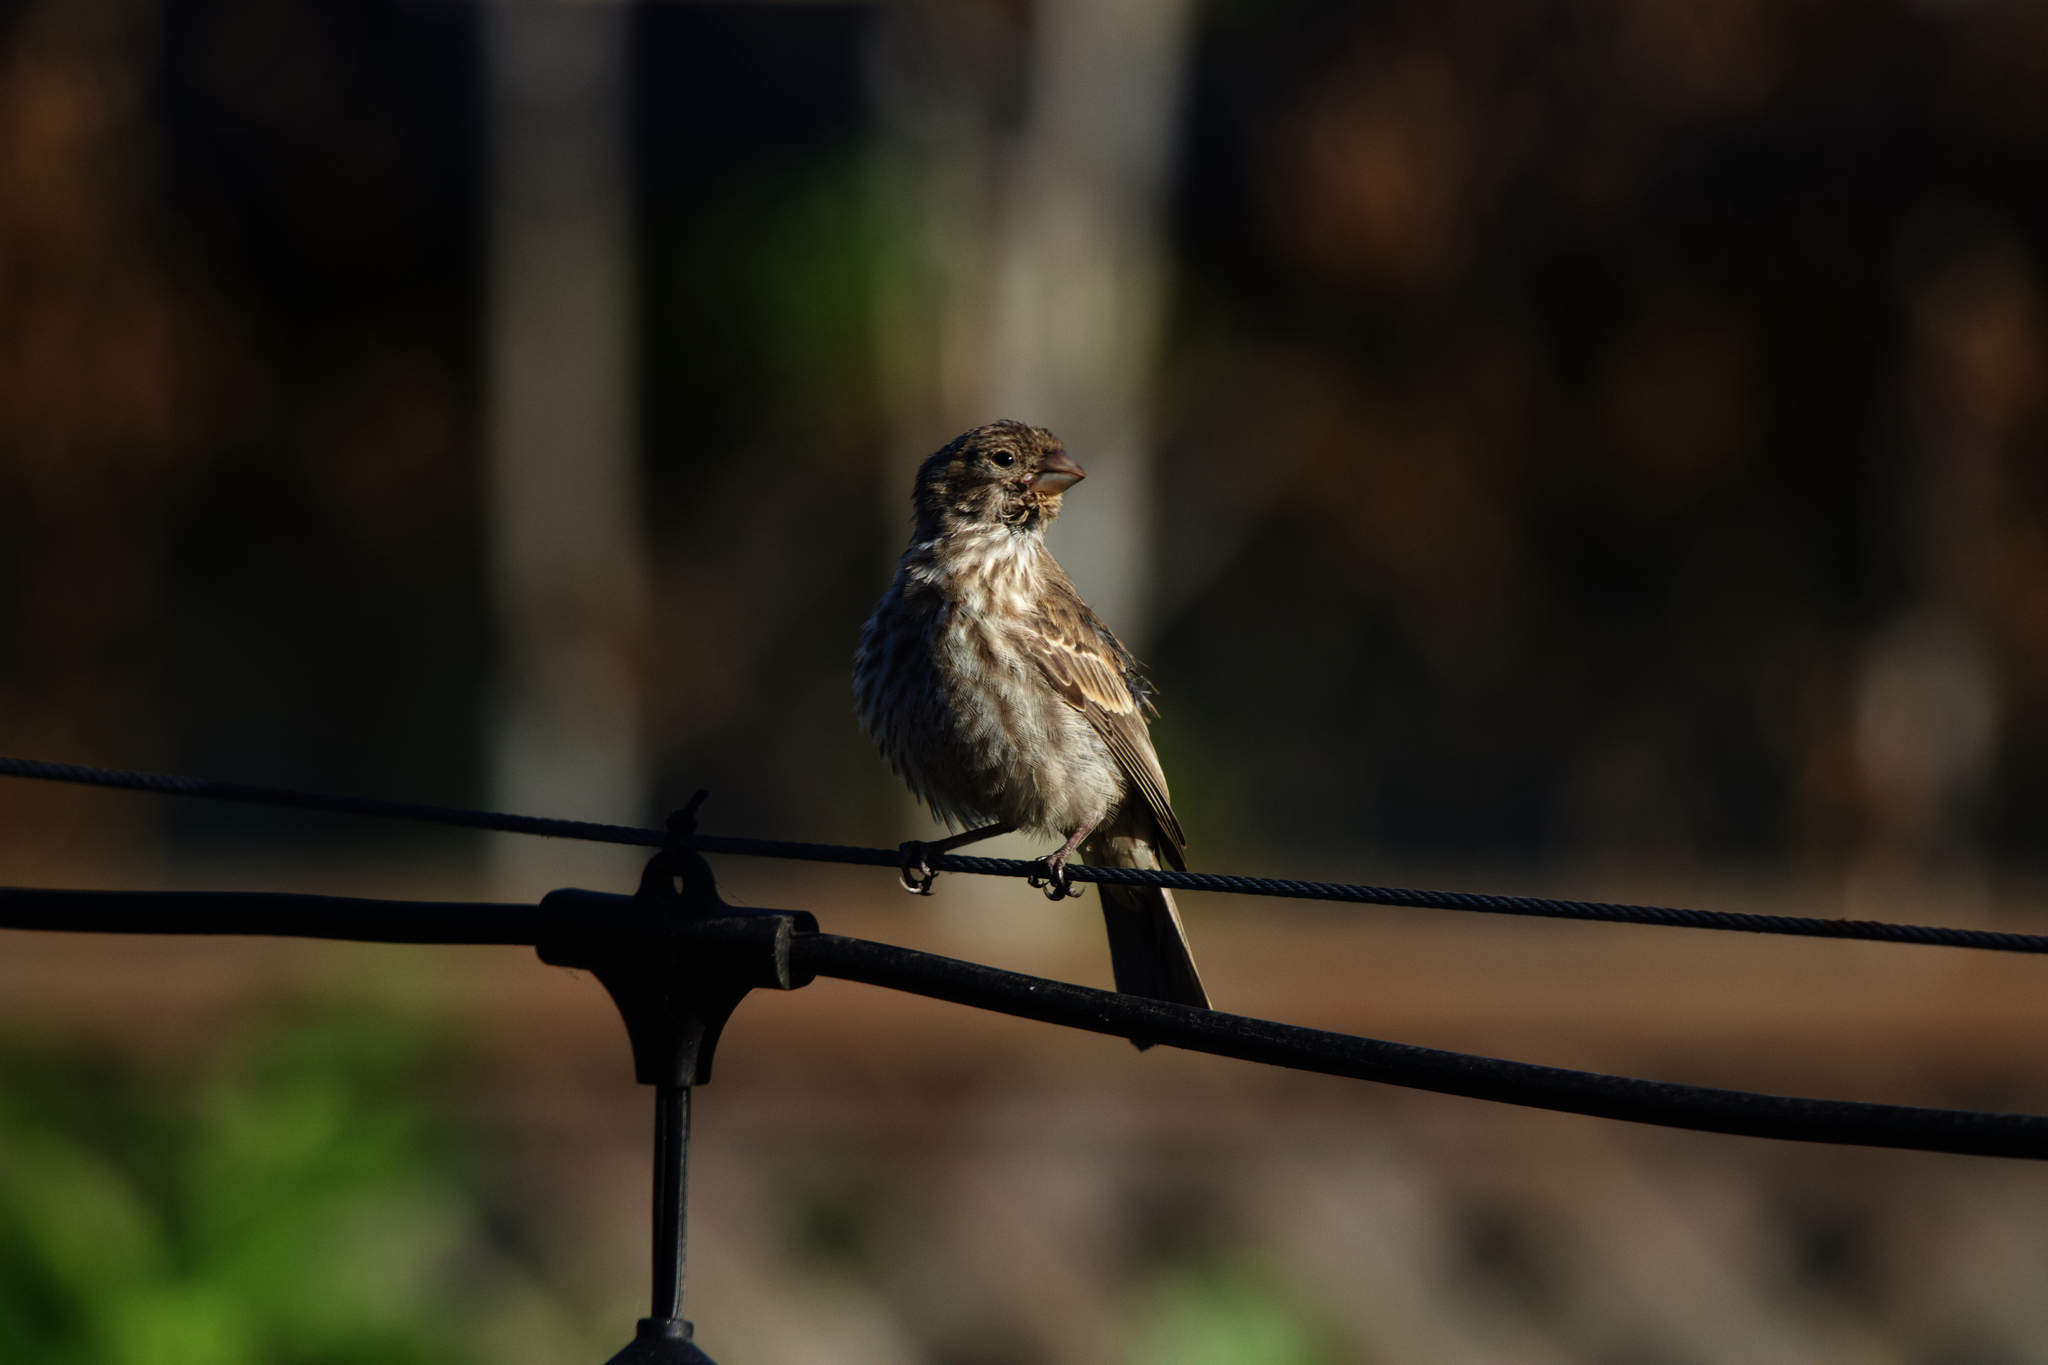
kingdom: Animalia
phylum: Chordata
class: Aves
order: Passeriformes
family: Fringillidae
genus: Haemorhous
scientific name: Haemorhous mexicanus
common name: House finch
